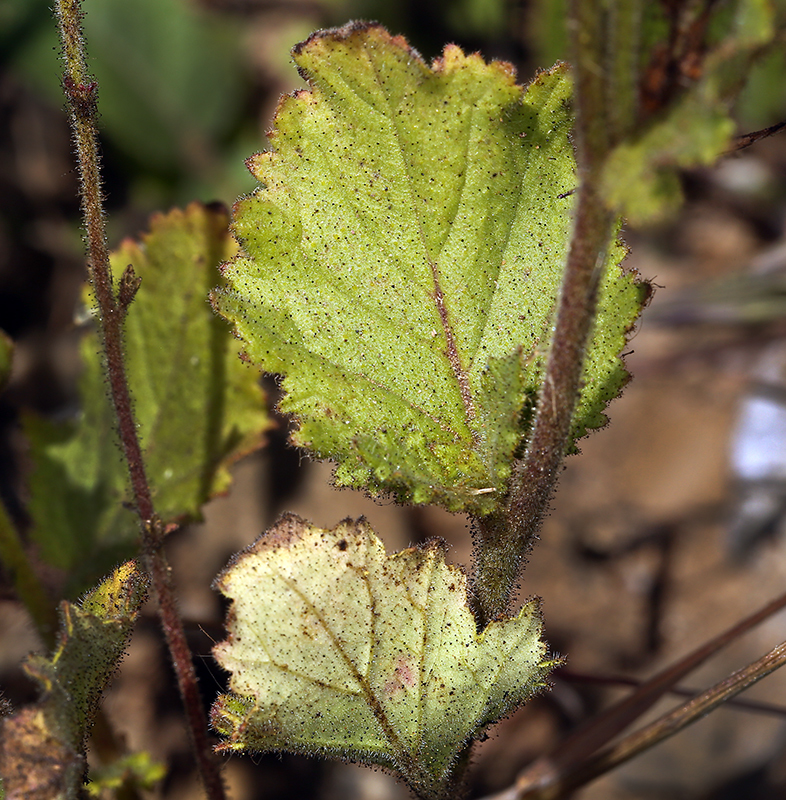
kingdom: Plantae
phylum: Tracheophyta
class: Magnoliopsida
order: Boraginales
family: Hydrophyllaceae
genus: Phacelia
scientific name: Phacelia viscida
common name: Sticky phacelia
